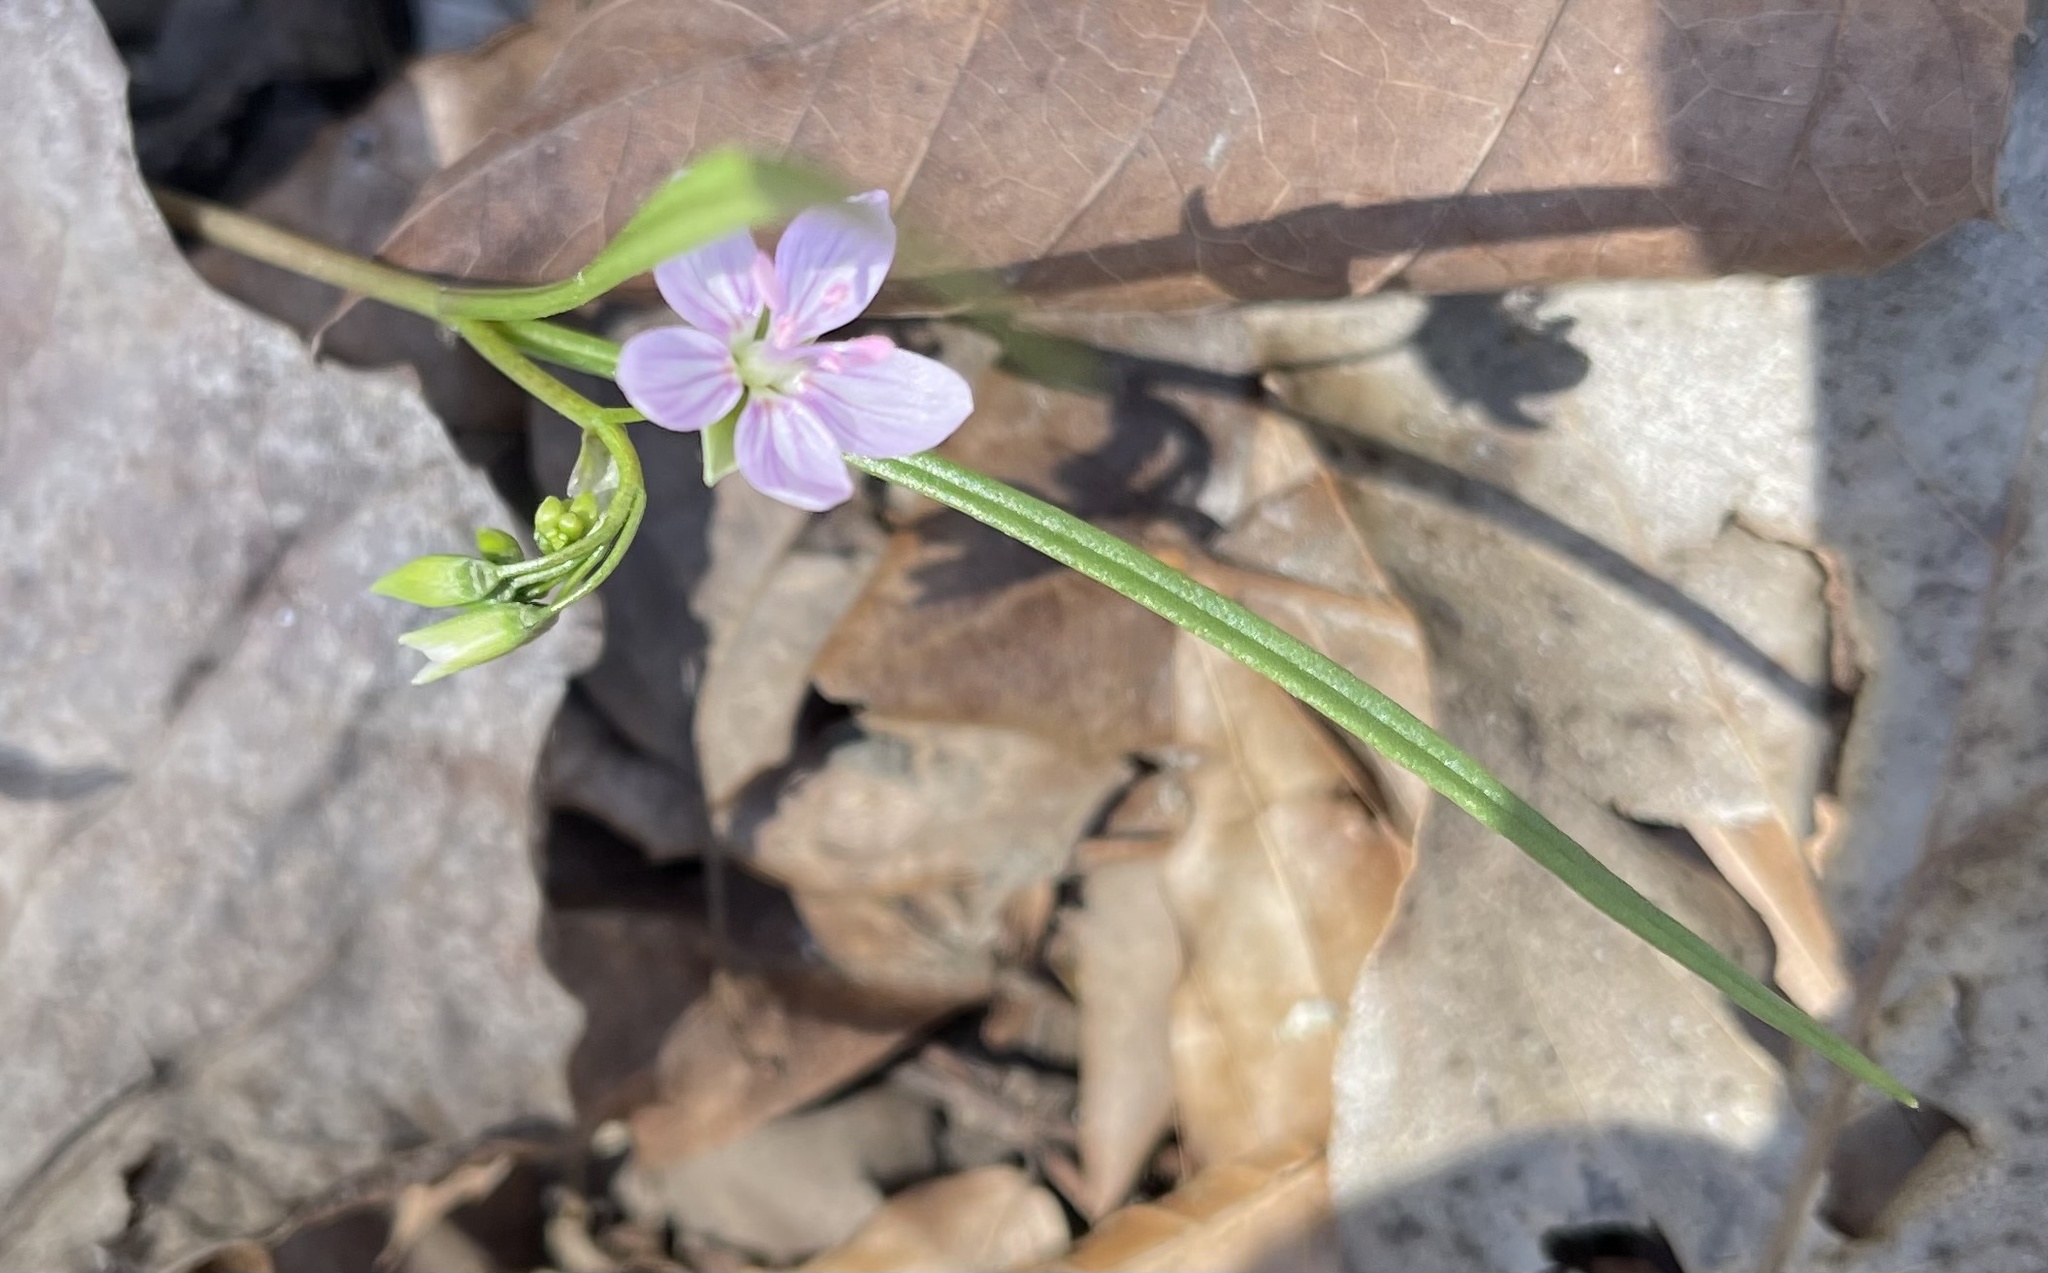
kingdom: Plantae
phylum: Tracheophyta
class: Magnoliopsida
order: Caryophyllales
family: Montiaceae
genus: Claytonia
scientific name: Claytonia virginica
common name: Virginia springbeauty
